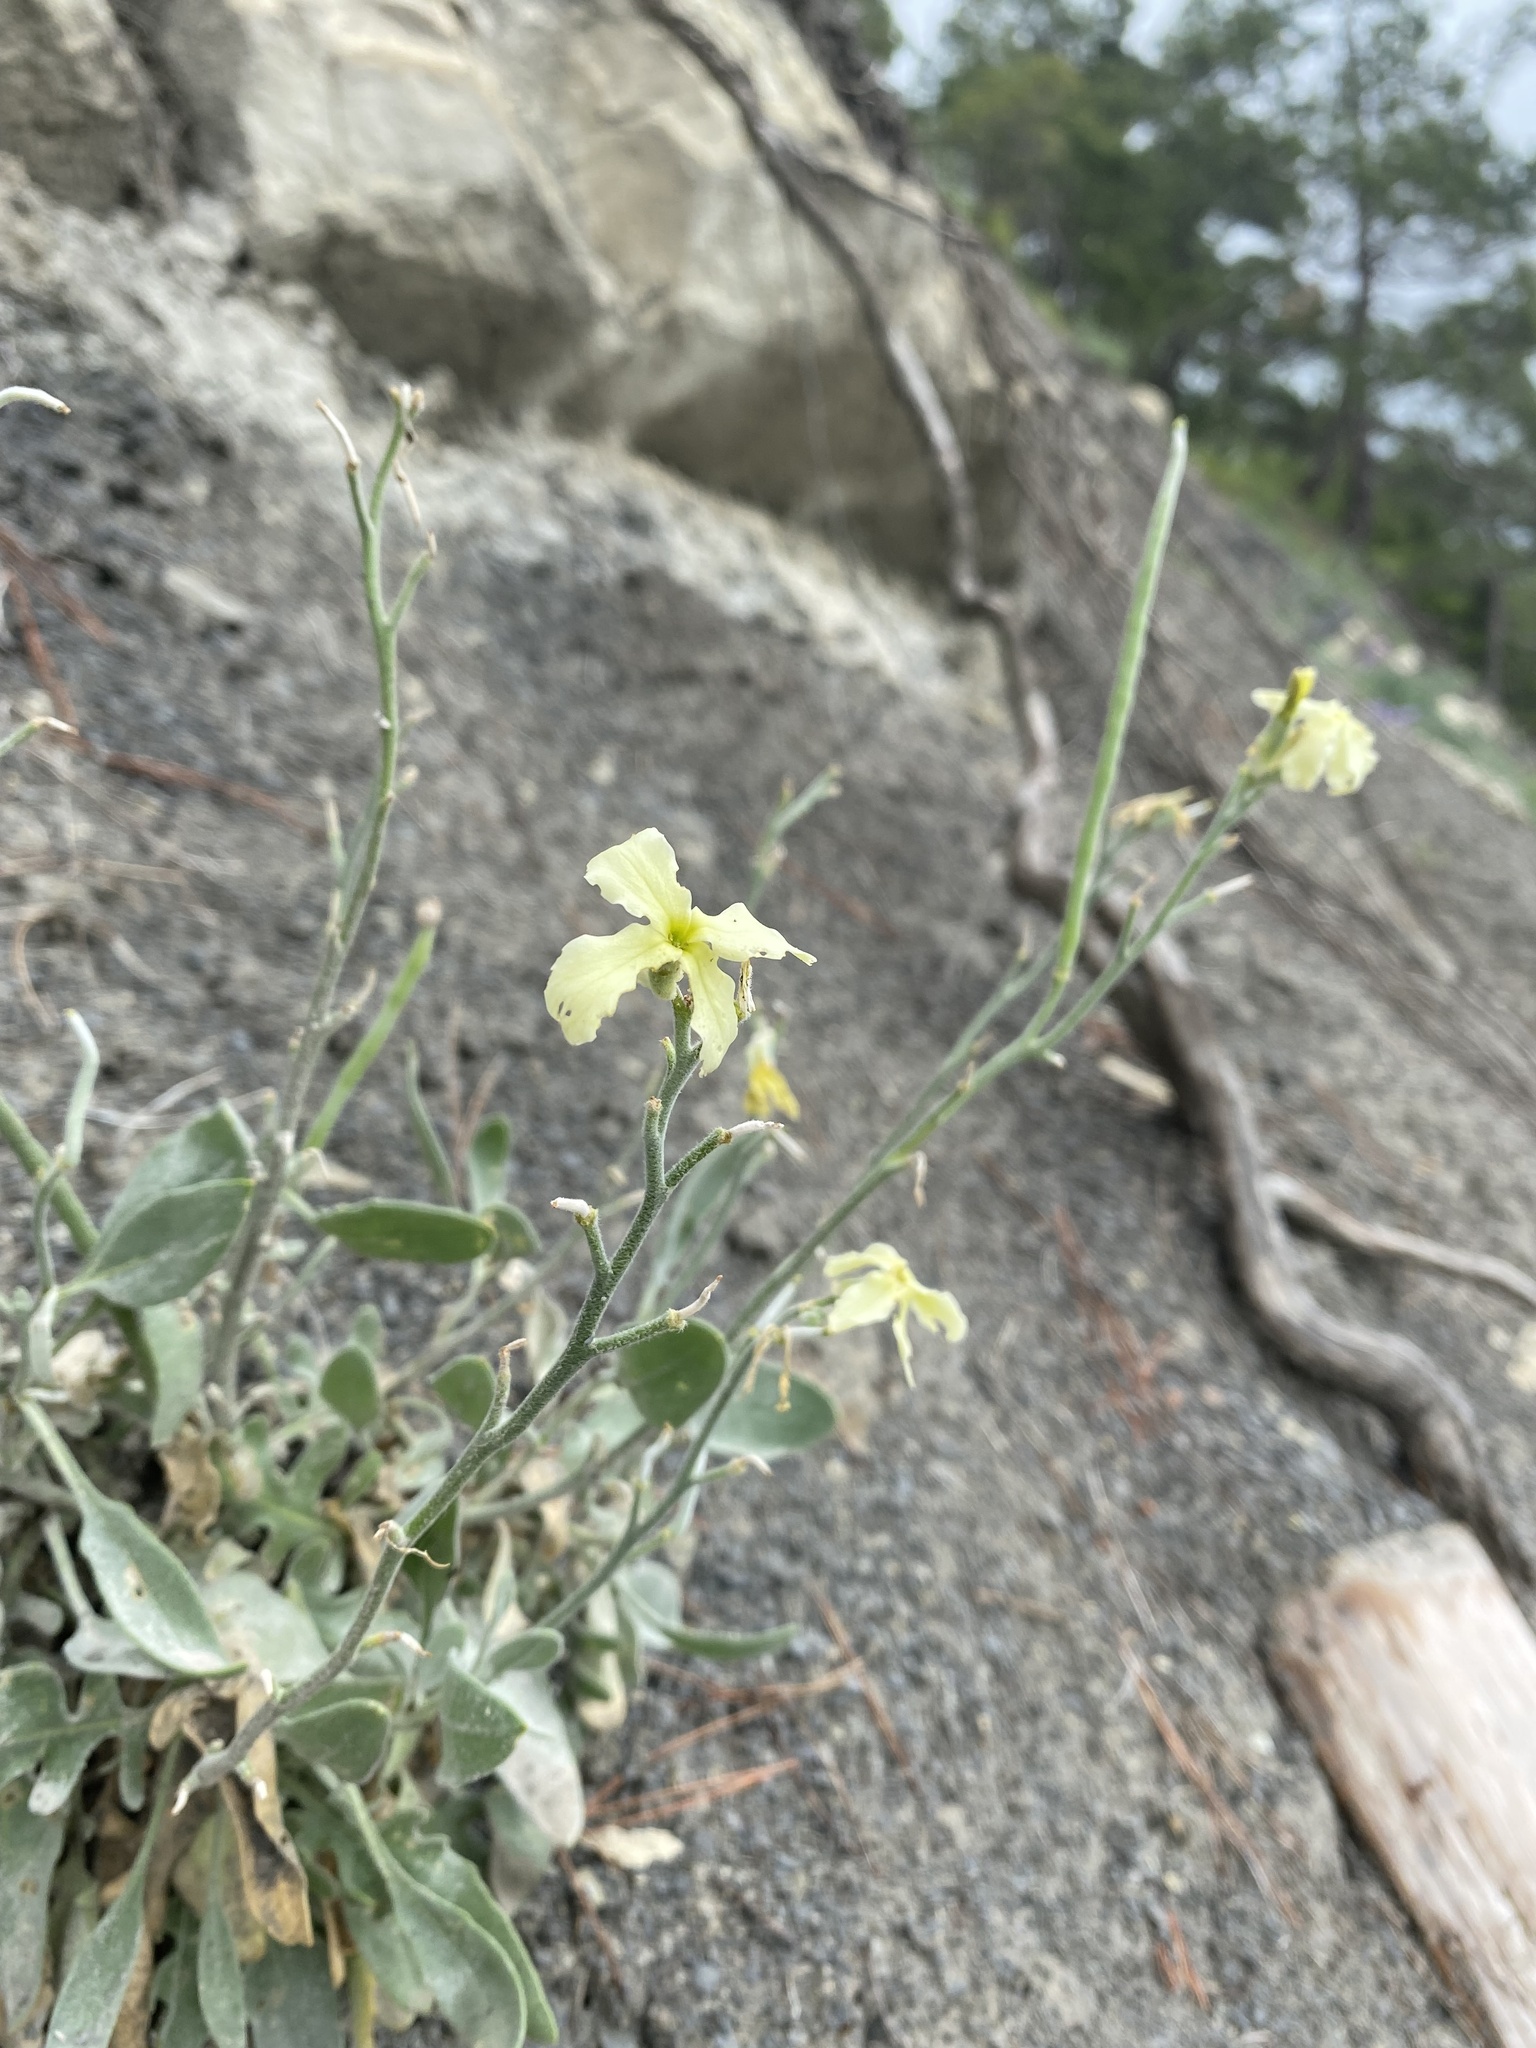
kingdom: Plantae
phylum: Tracheophyta
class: Magnoliopsida
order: Brassicales
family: Brassicaceae
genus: Matthiola
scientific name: Matthiola odoratissima
